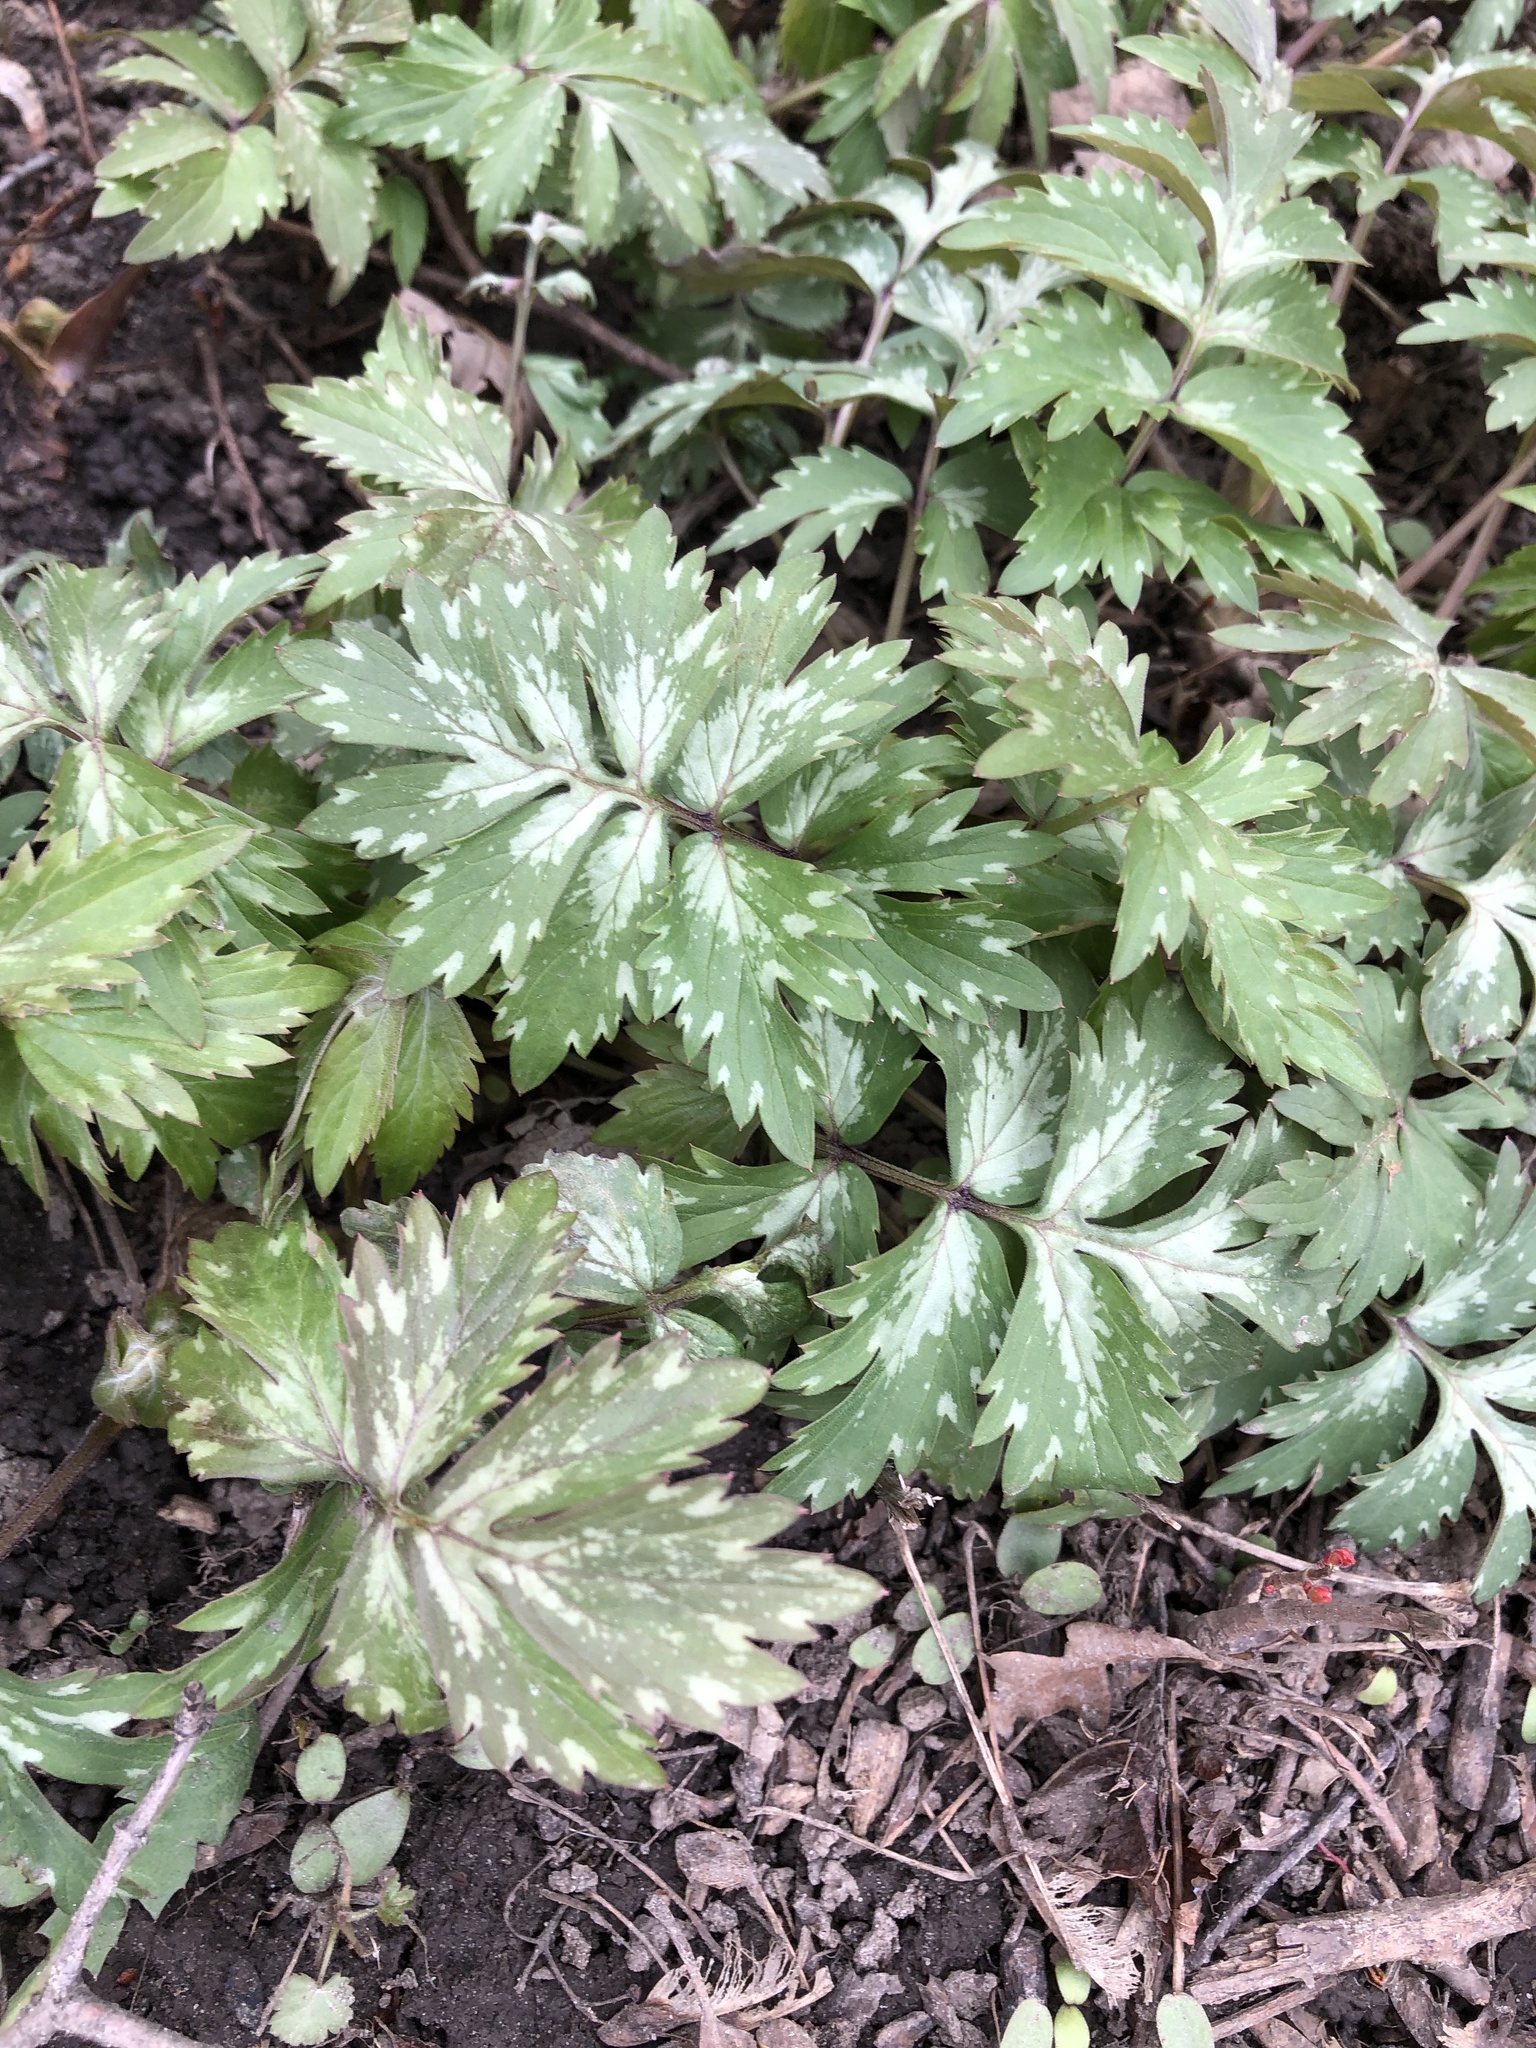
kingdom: Plantae
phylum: Tracheophyta
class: Magnoliopsida
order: Boraginales
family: Hydrophyllaceae
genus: Hydrophyllum
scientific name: Hydrophyllum virginianum
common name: Virginia waterleaf
